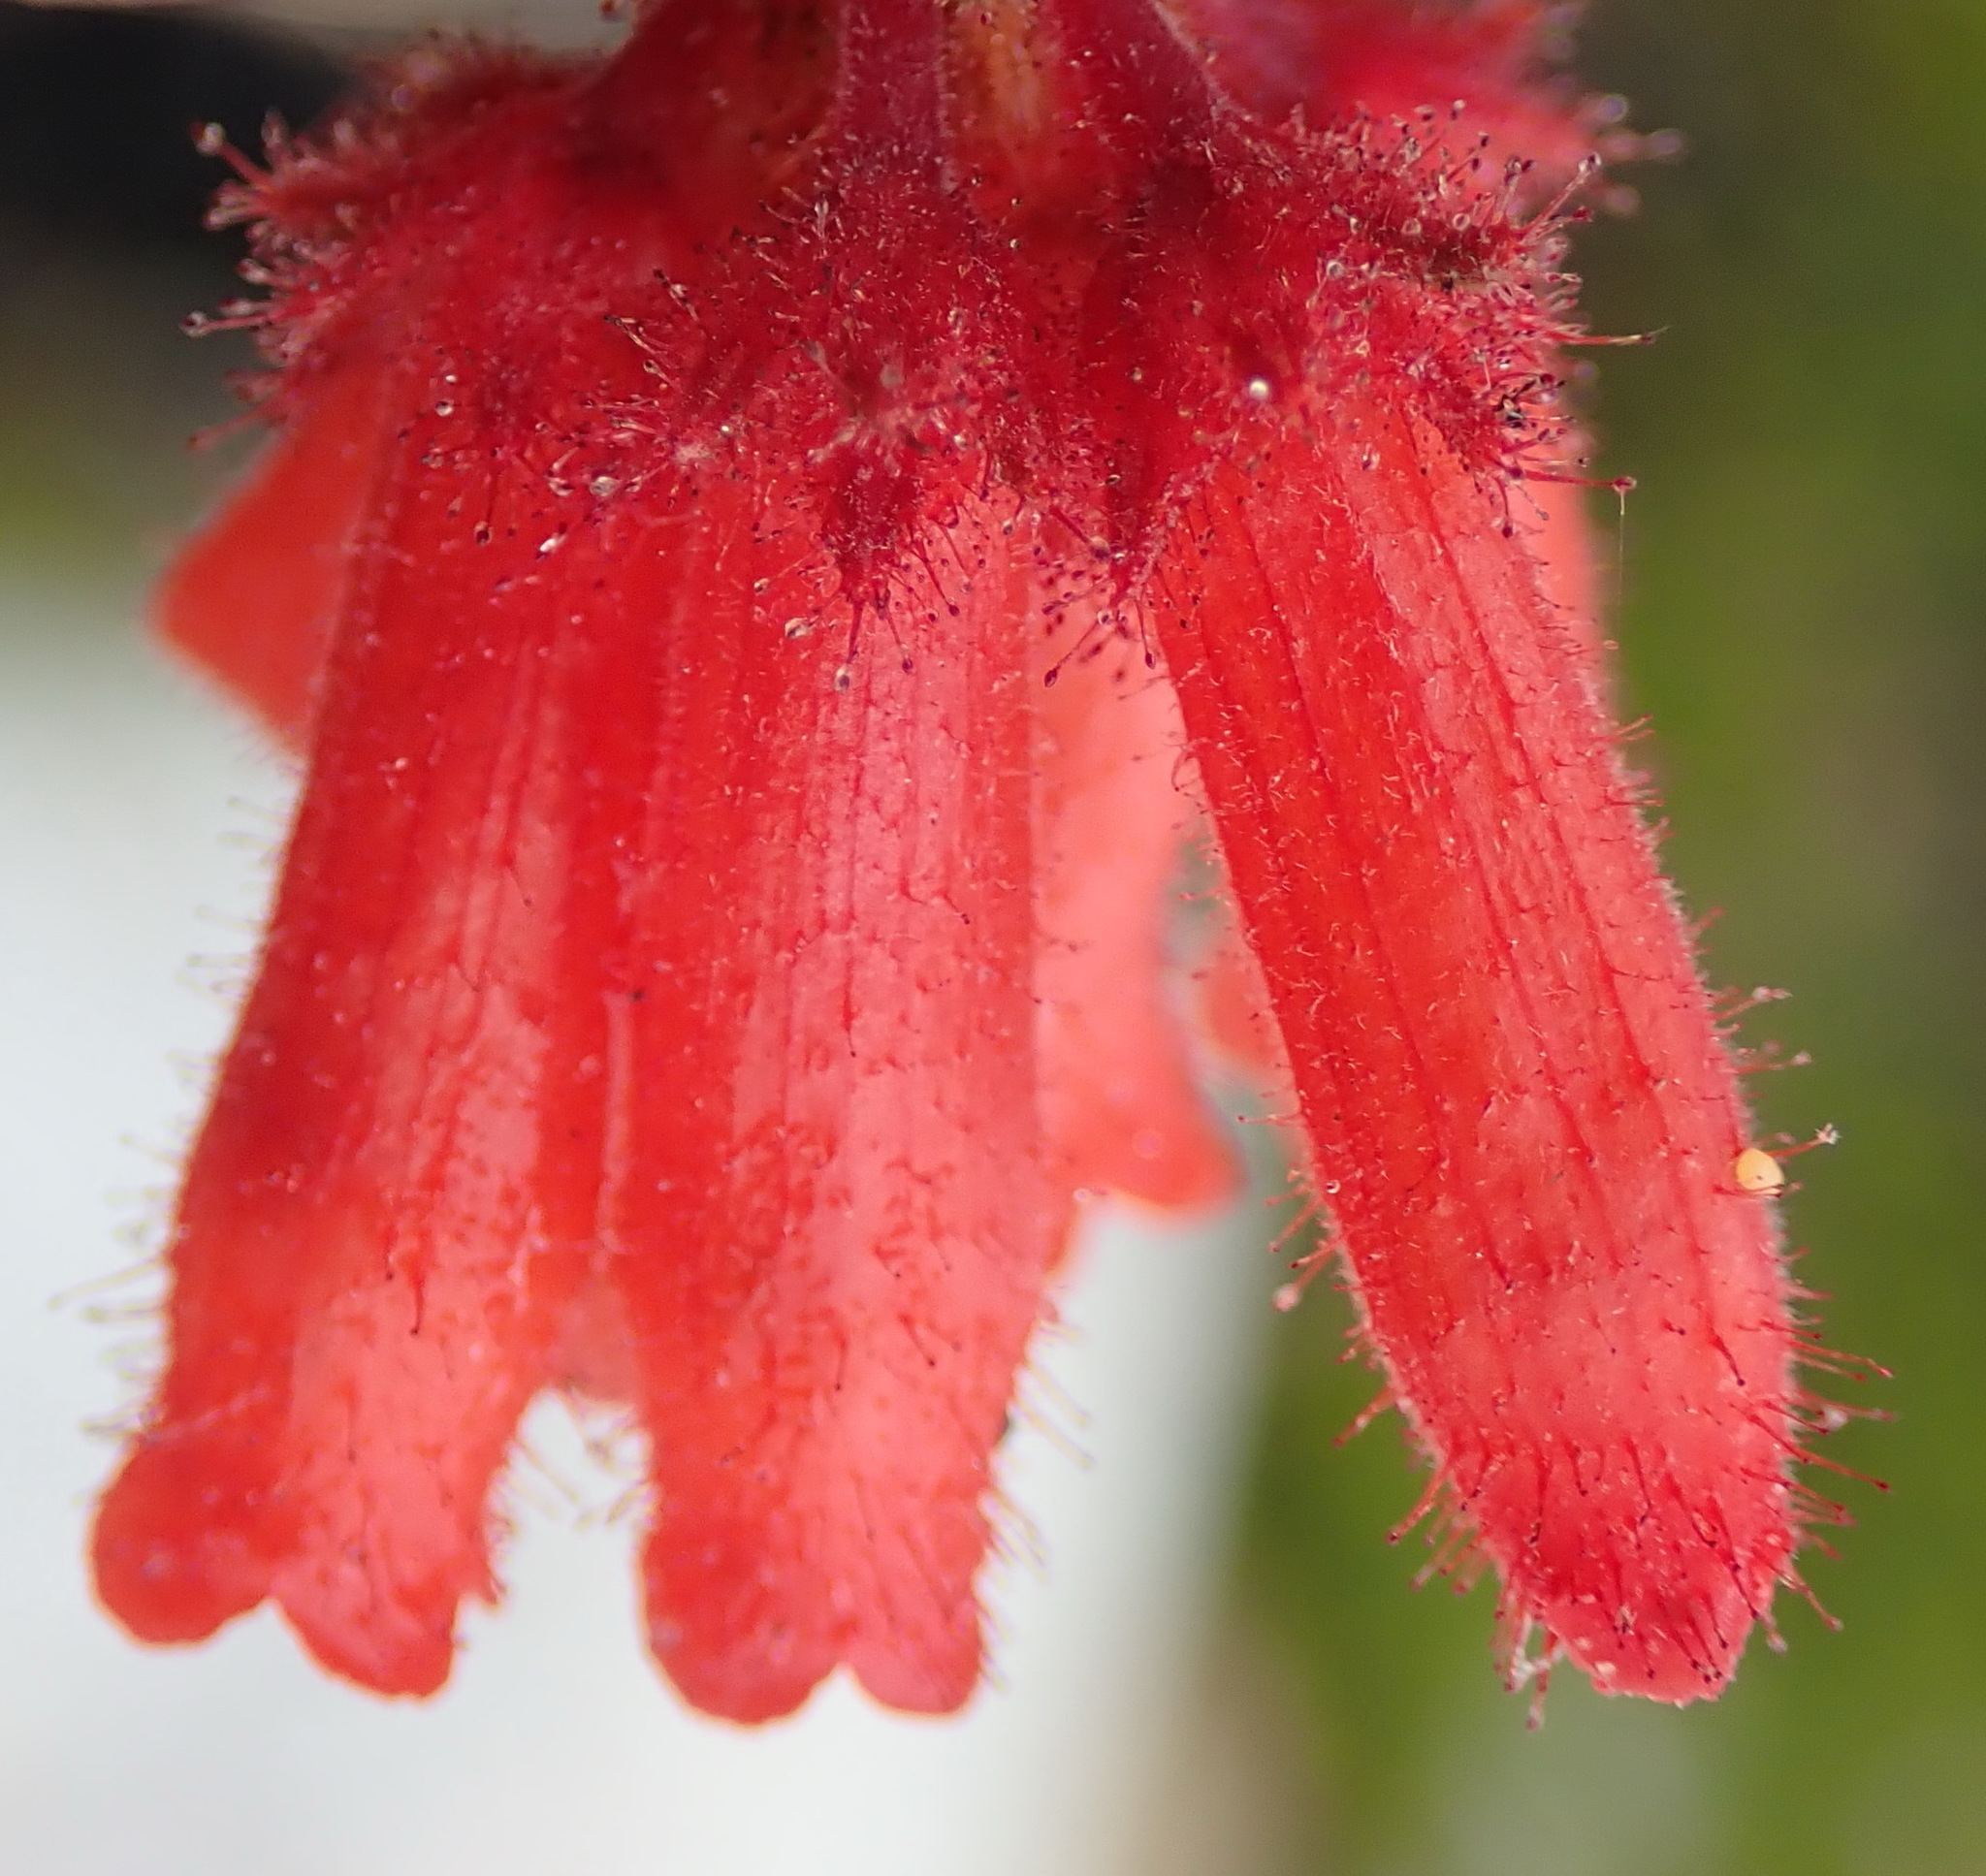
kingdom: Plantae
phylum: Tracheophyta
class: Magnoliopsida
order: Ericales
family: Ericaceae
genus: Erica
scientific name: Erica cerinthoides
